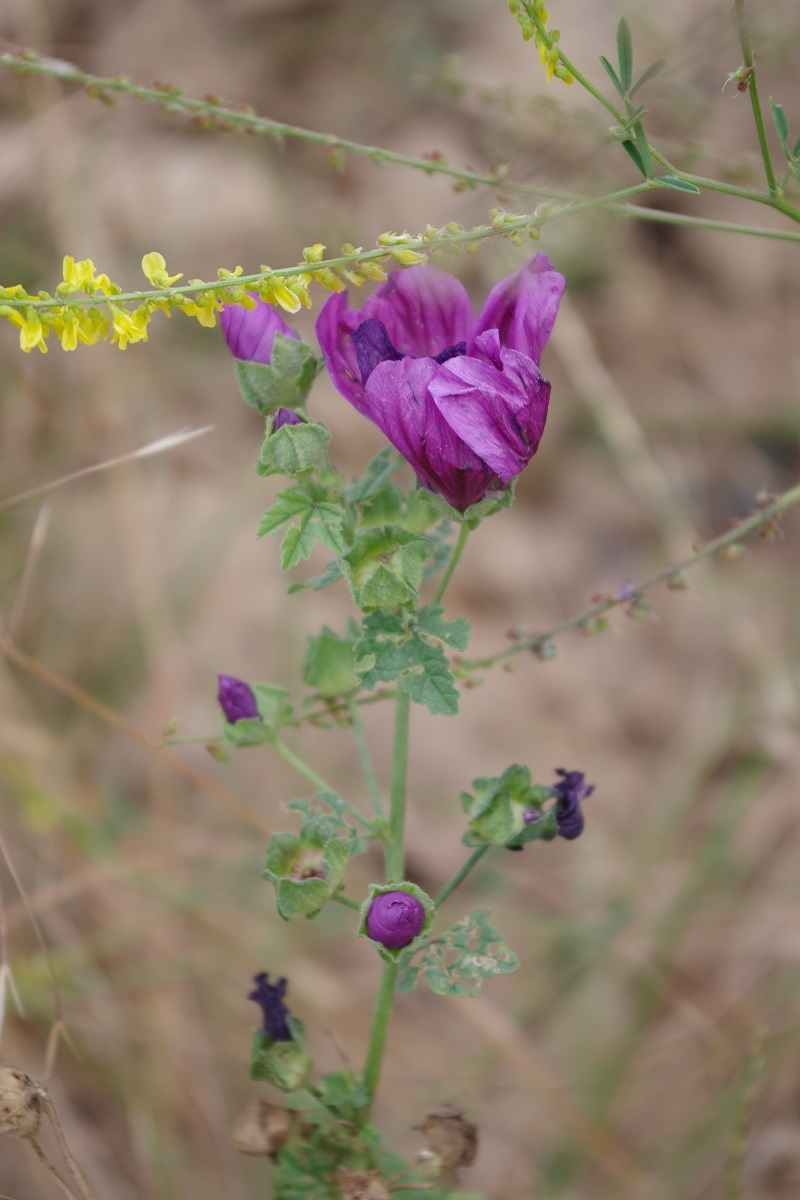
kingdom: Plantae
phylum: Tracheophyta
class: Magnoliopsida
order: Malvales
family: Malvaceae
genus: Malva
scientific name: Malva sylvestris
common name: Common mallow
